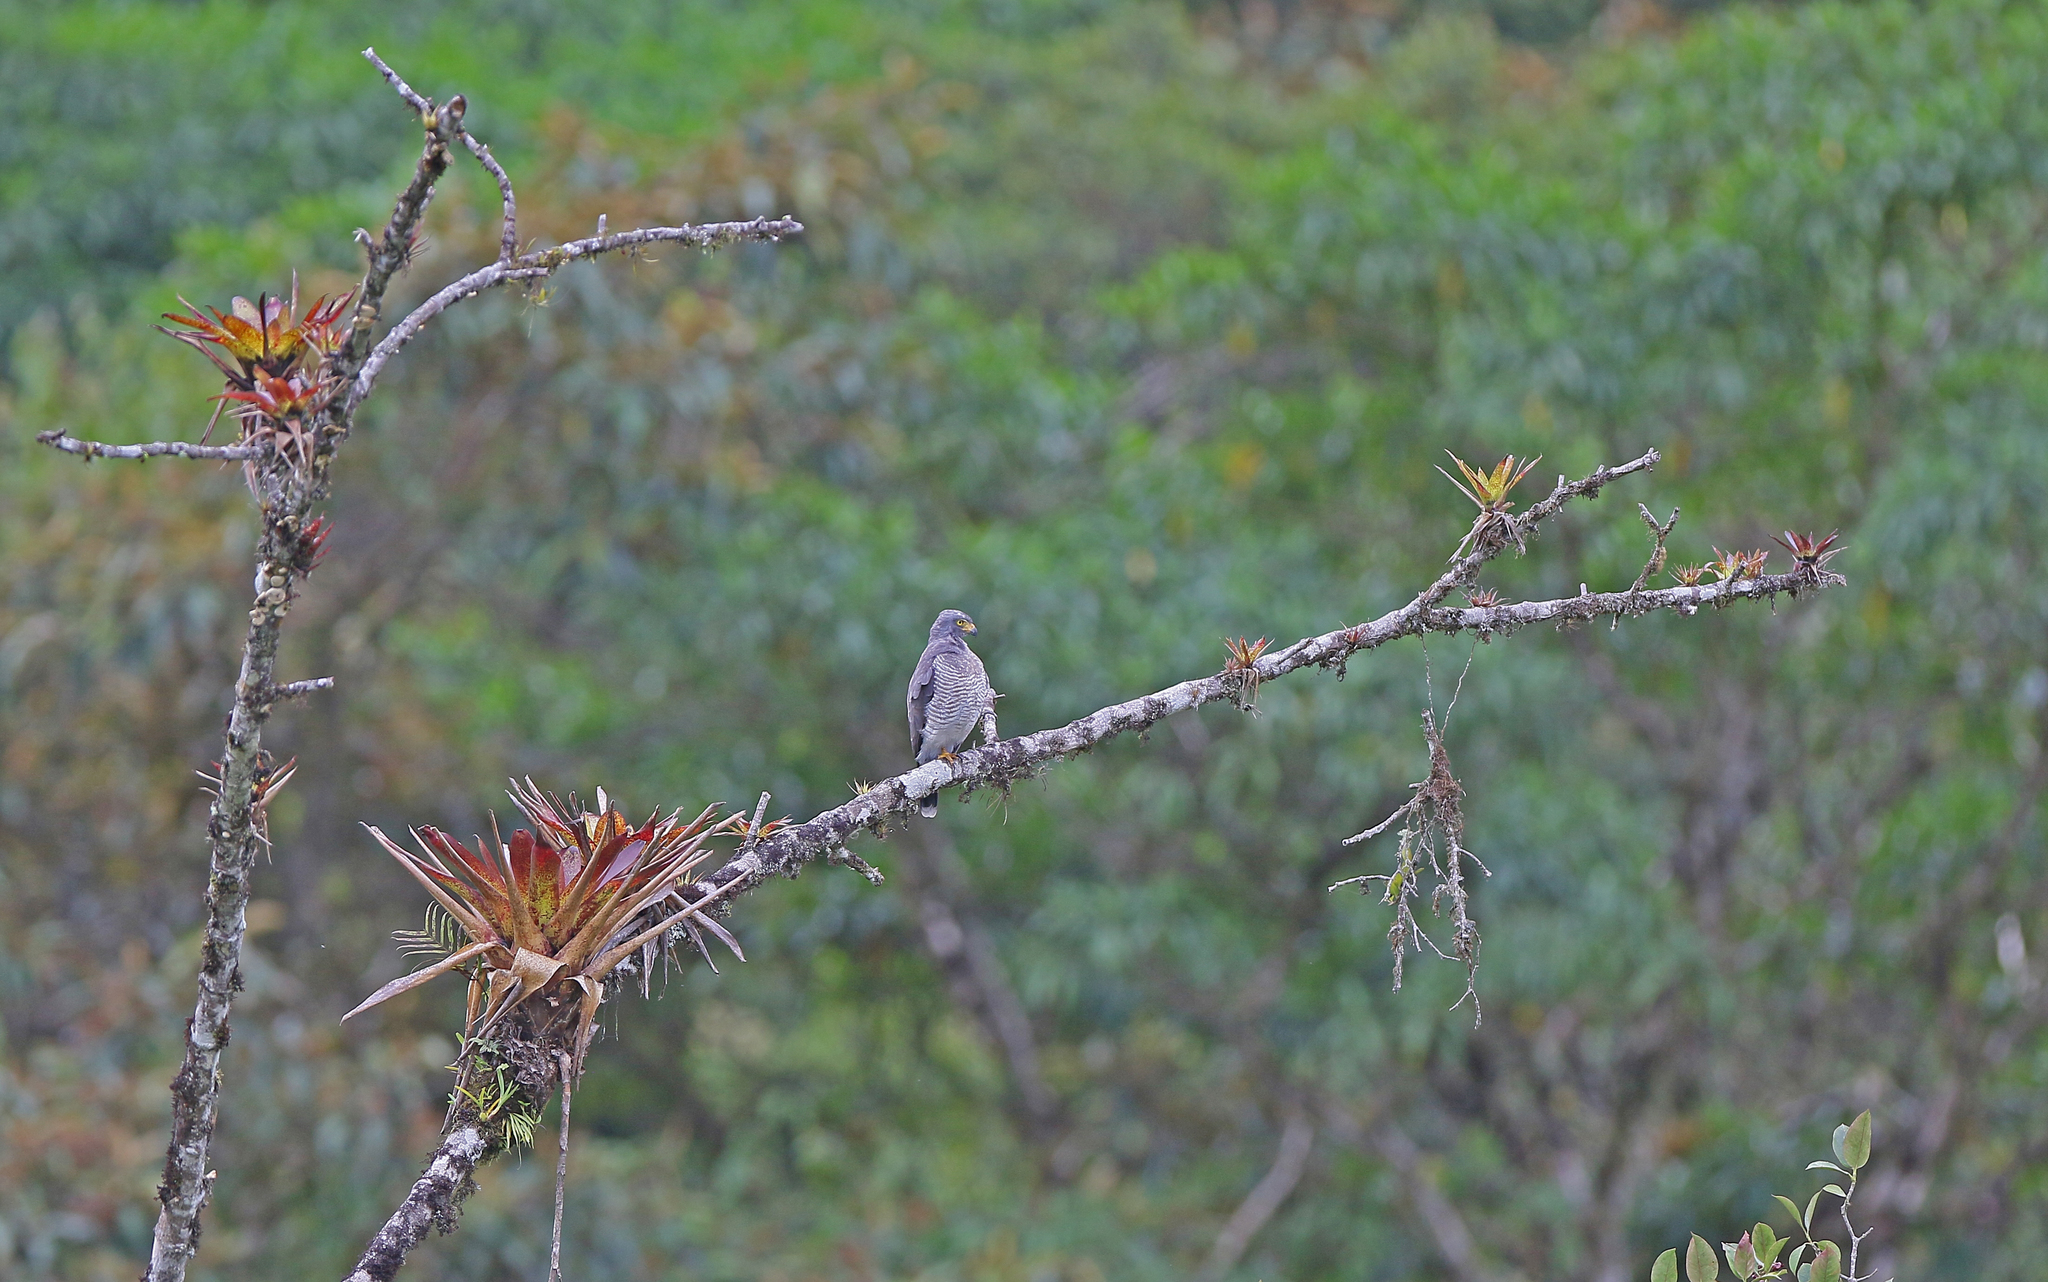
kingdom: Animalia
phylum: Chordata
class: Aves
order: Accipitriformes
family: Accipitridae
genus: Rupornis
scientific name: Rupornis magnirostris
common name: Roadside hawk
